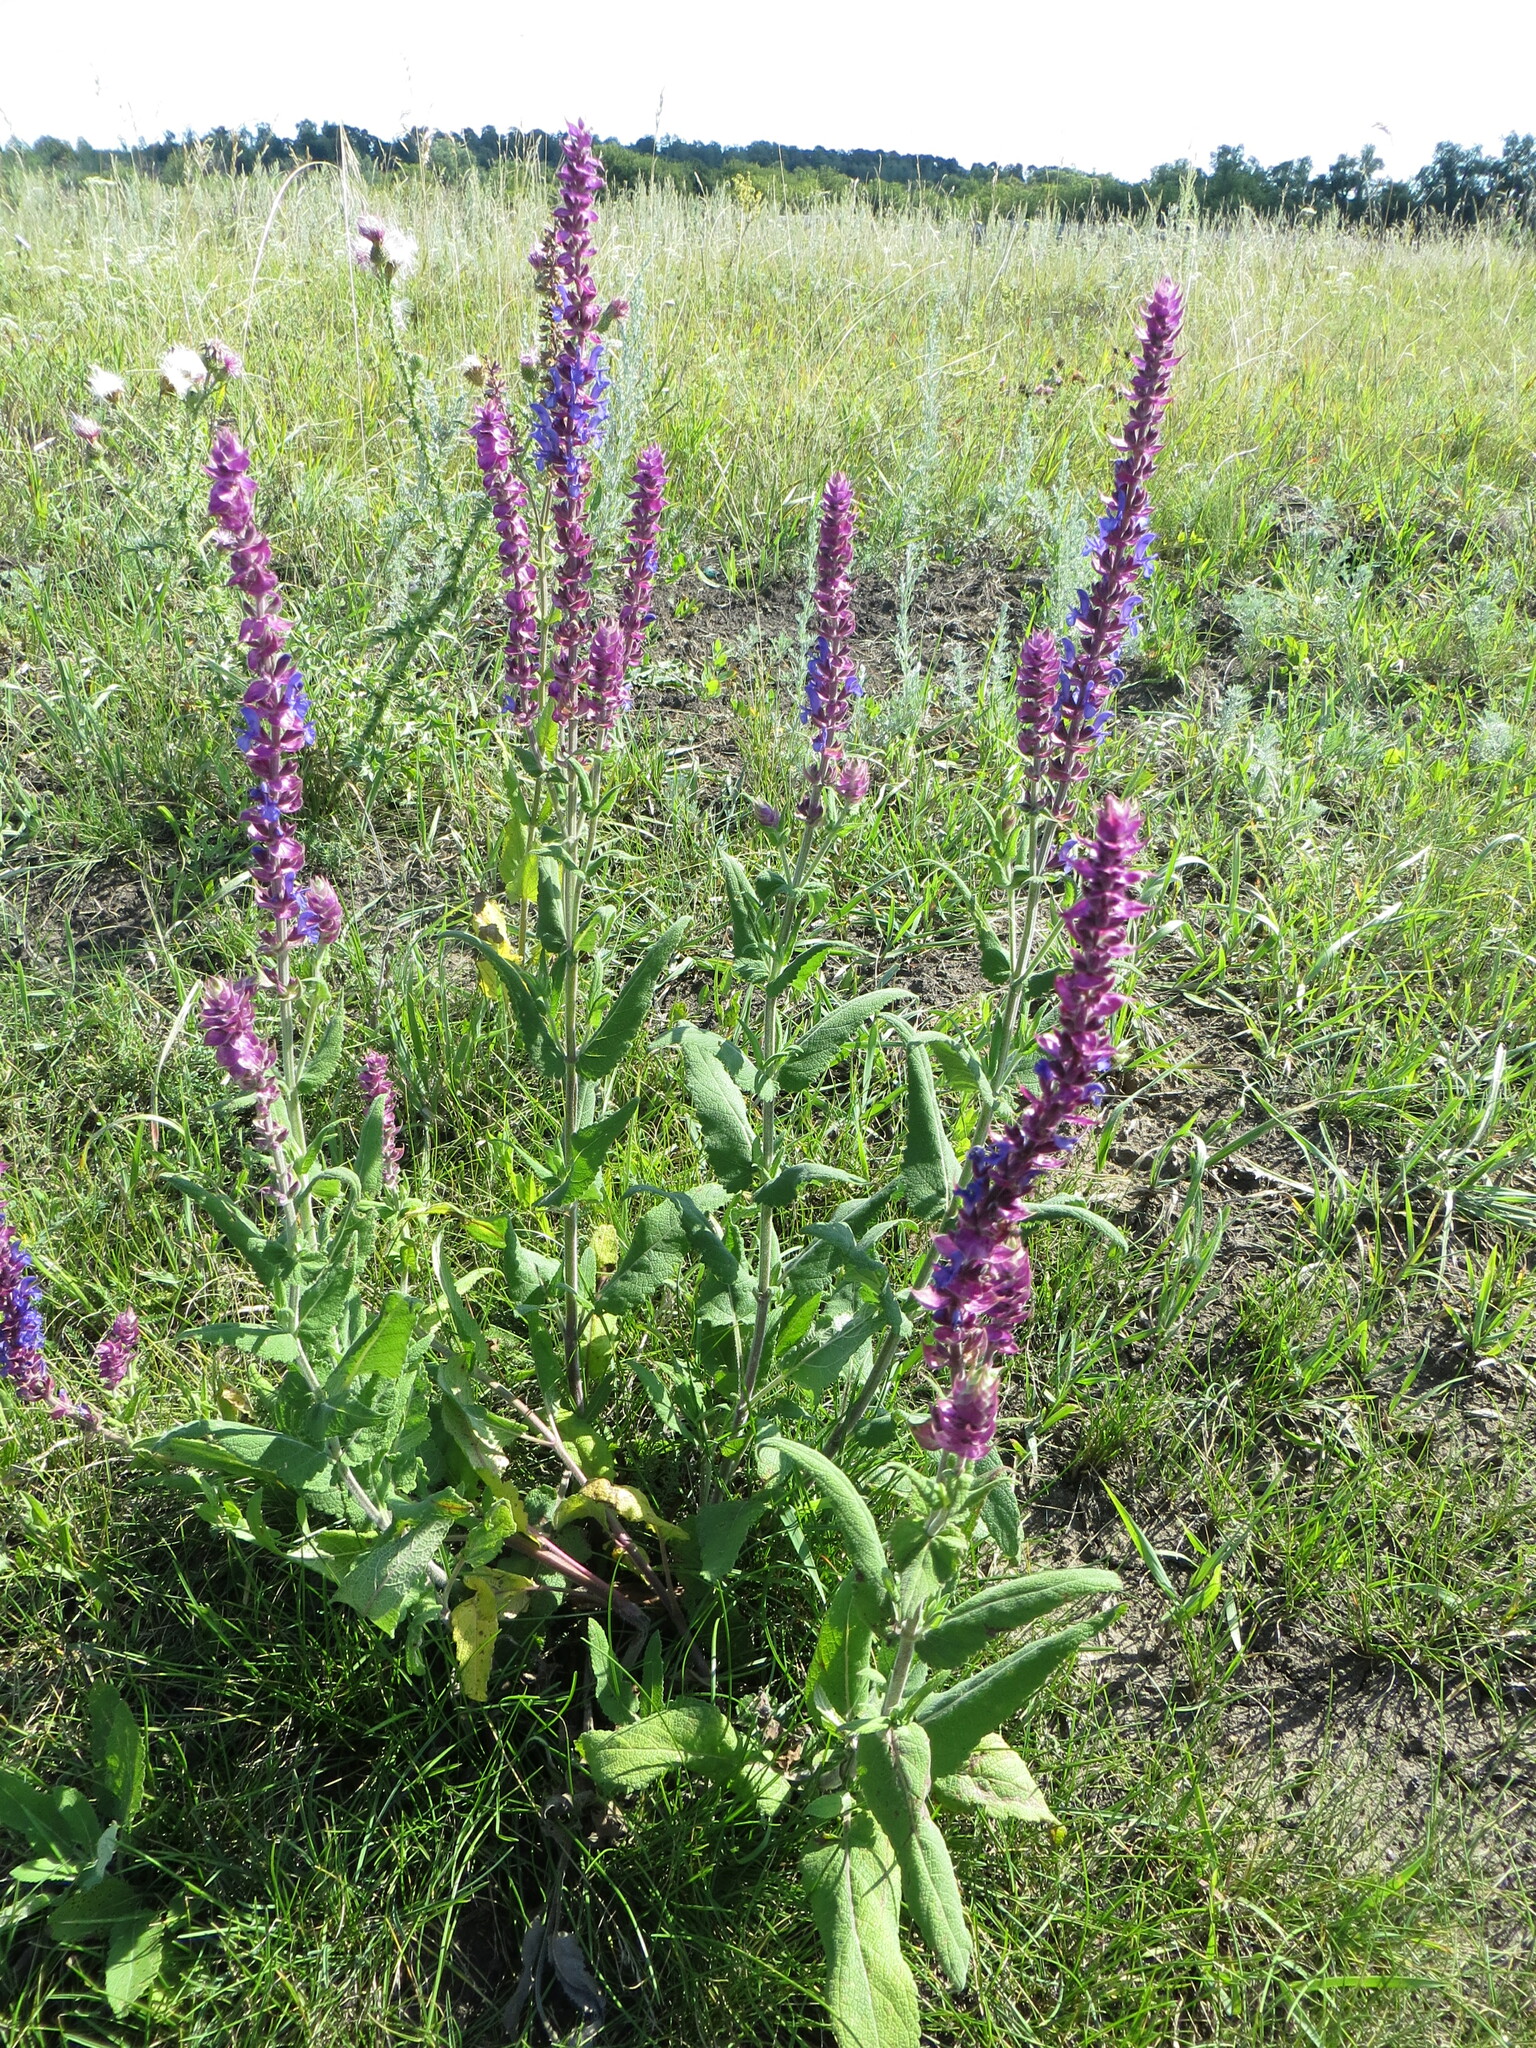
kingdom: Plantae
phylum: Tracheophyta
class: Magnoliopsida
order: Lamiales
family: Lamiaceae
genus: Salvia
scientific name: Salvia nemorosa
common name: Balkan clary
